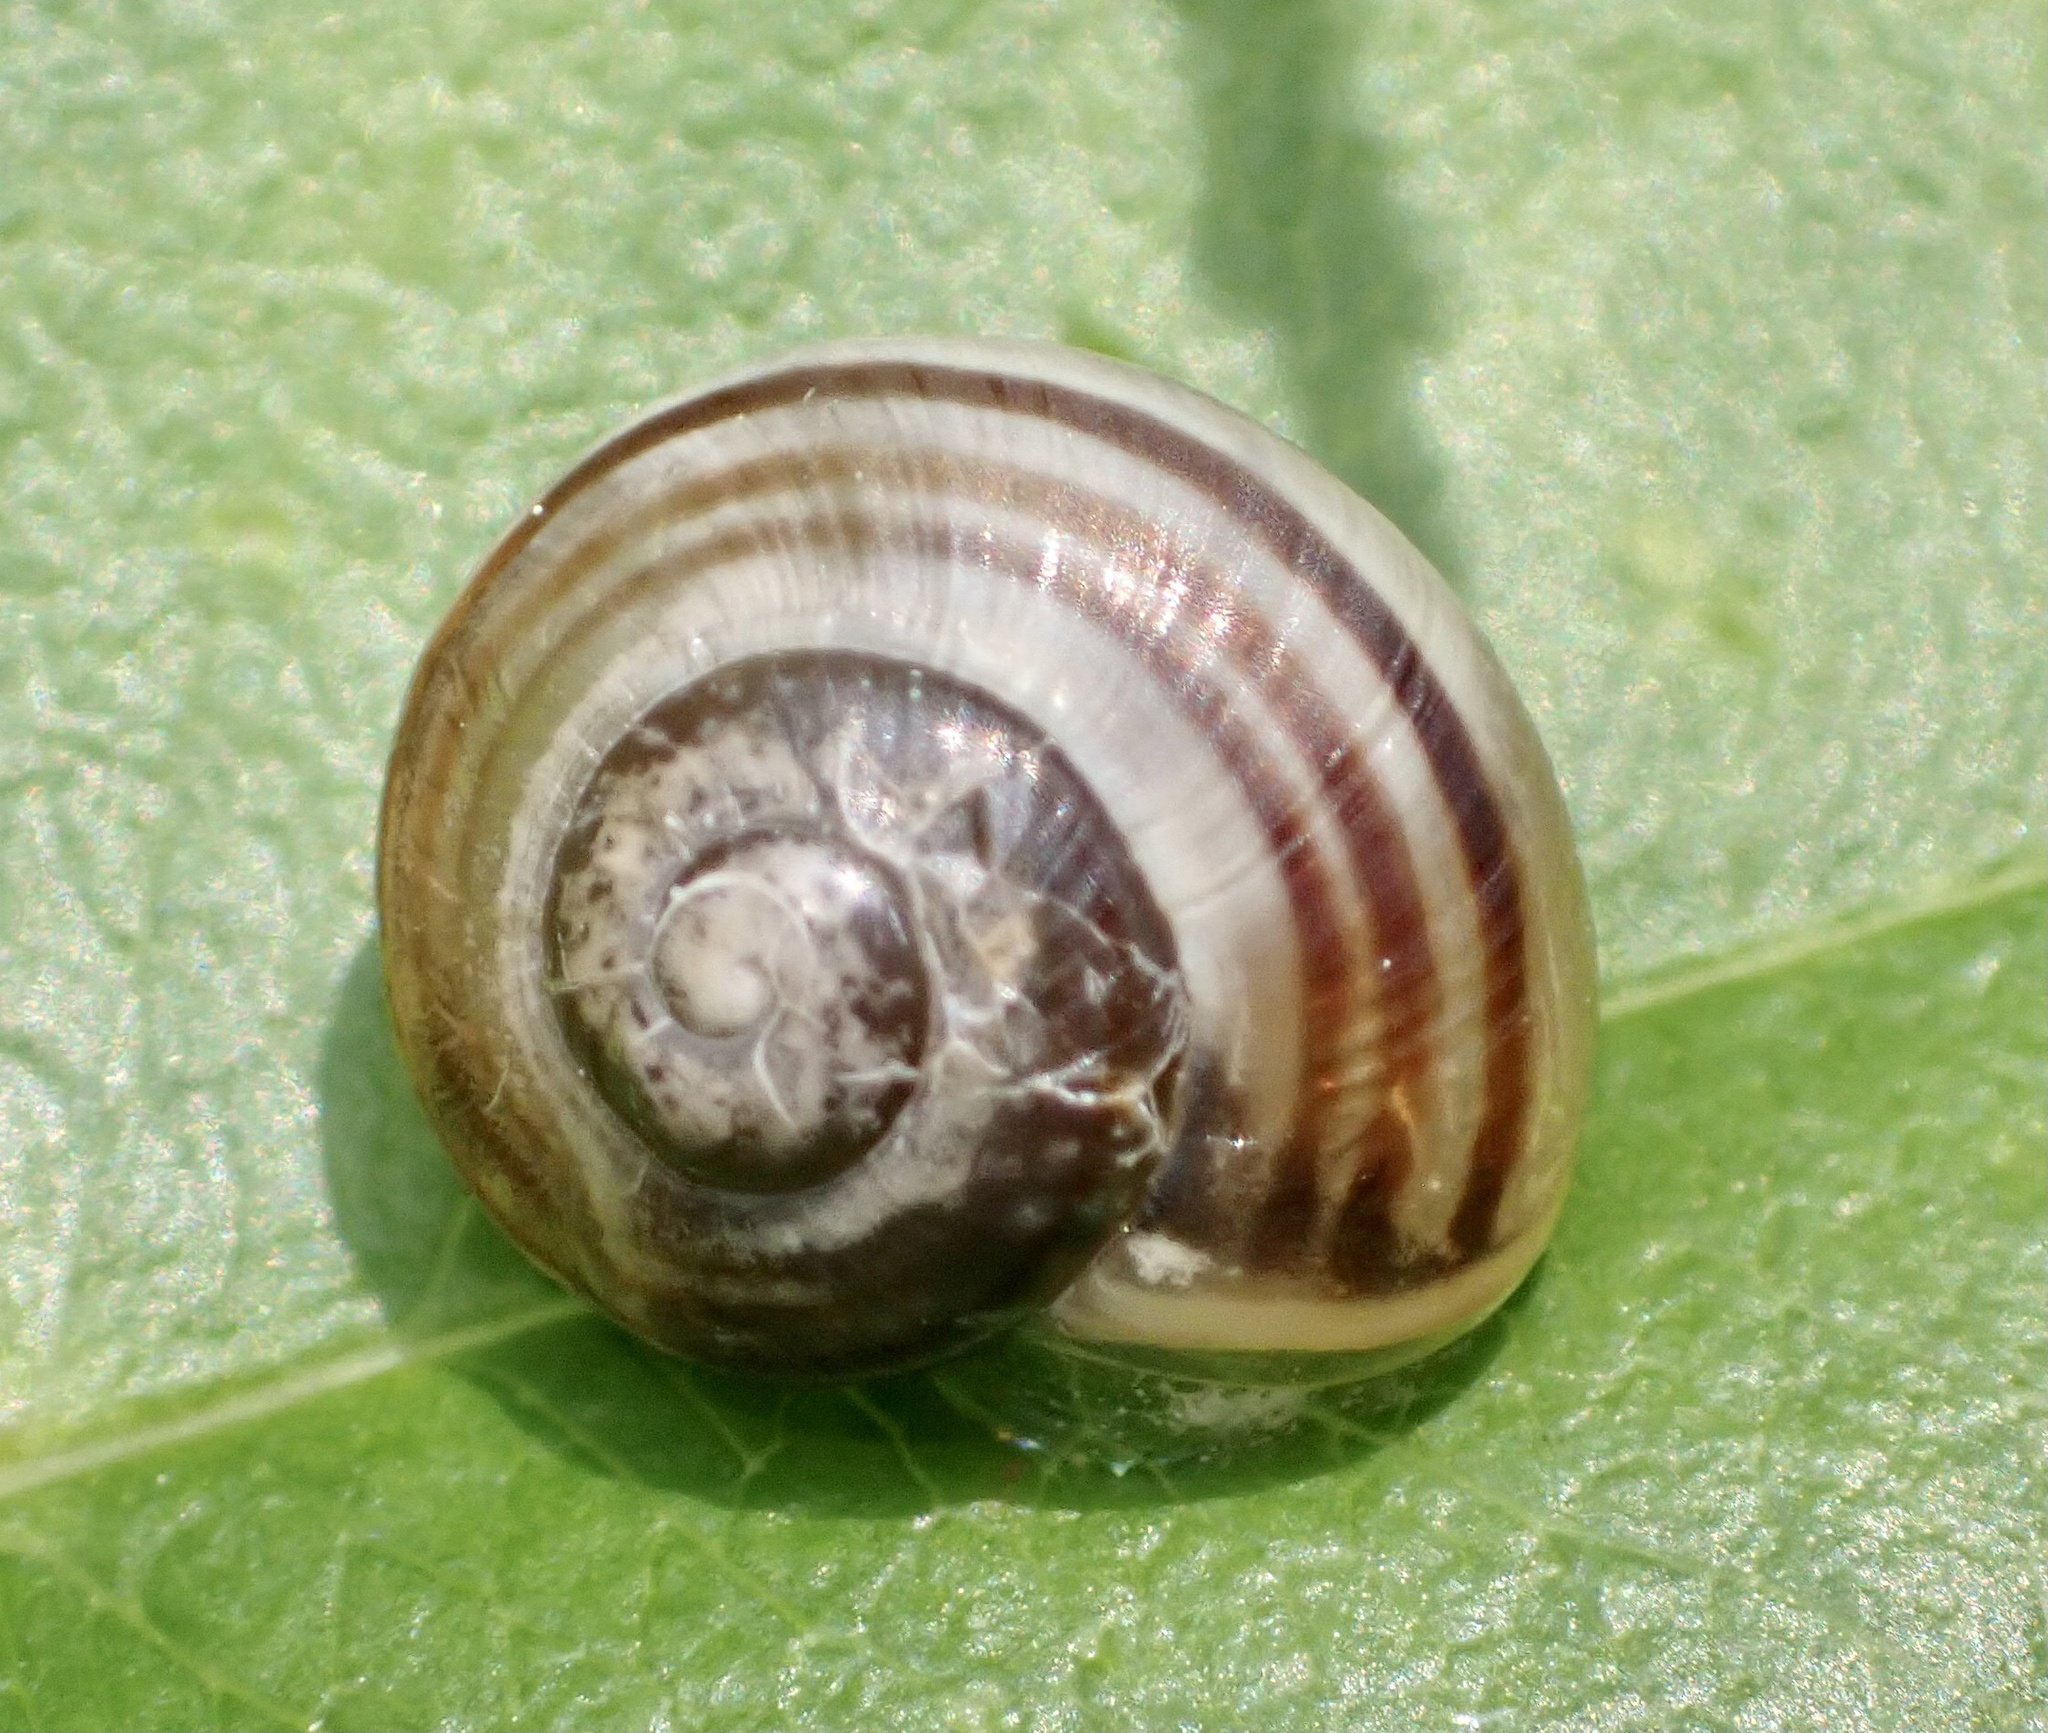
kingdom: Animalia
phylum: Mollusca
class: Gastropoda
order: Stylommatophora
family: Helicidae
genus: Cepaea
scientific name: Cepaea
